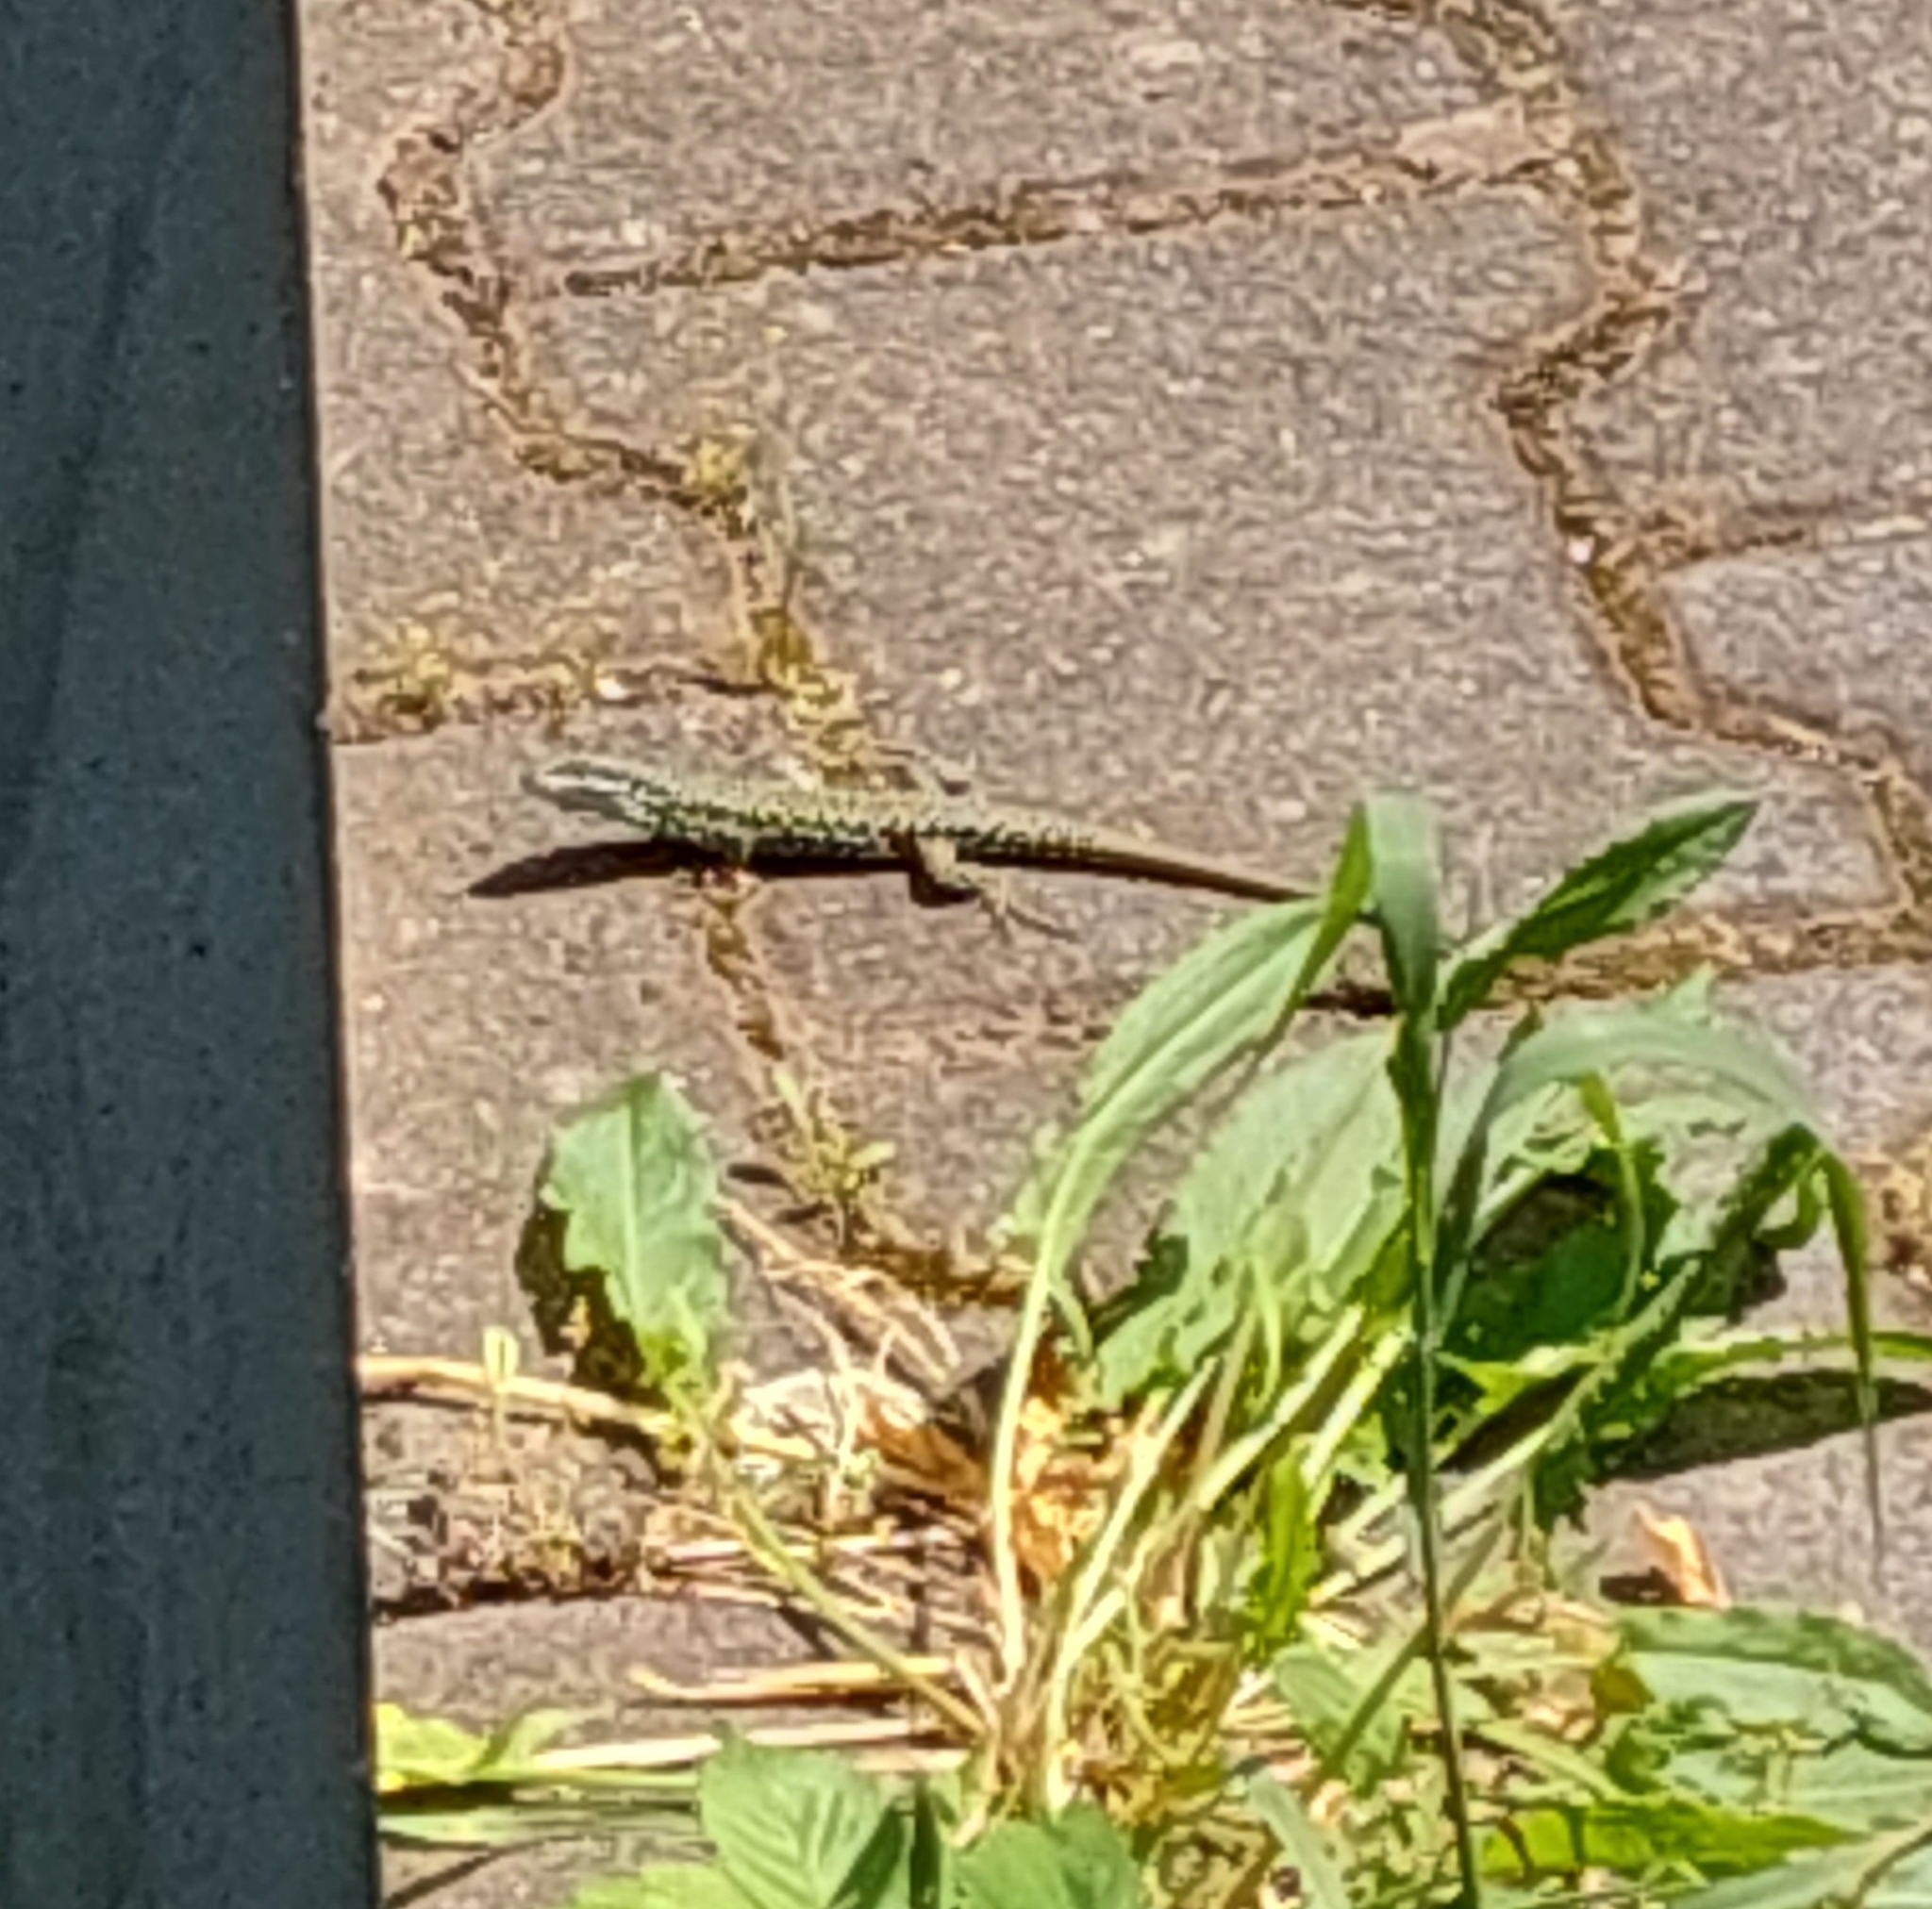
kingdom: Animalia
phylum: Chordata
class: Squamata
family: Lacertidae
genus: Podarcis
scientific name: Podarcis muralis
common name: Common wall lizard
